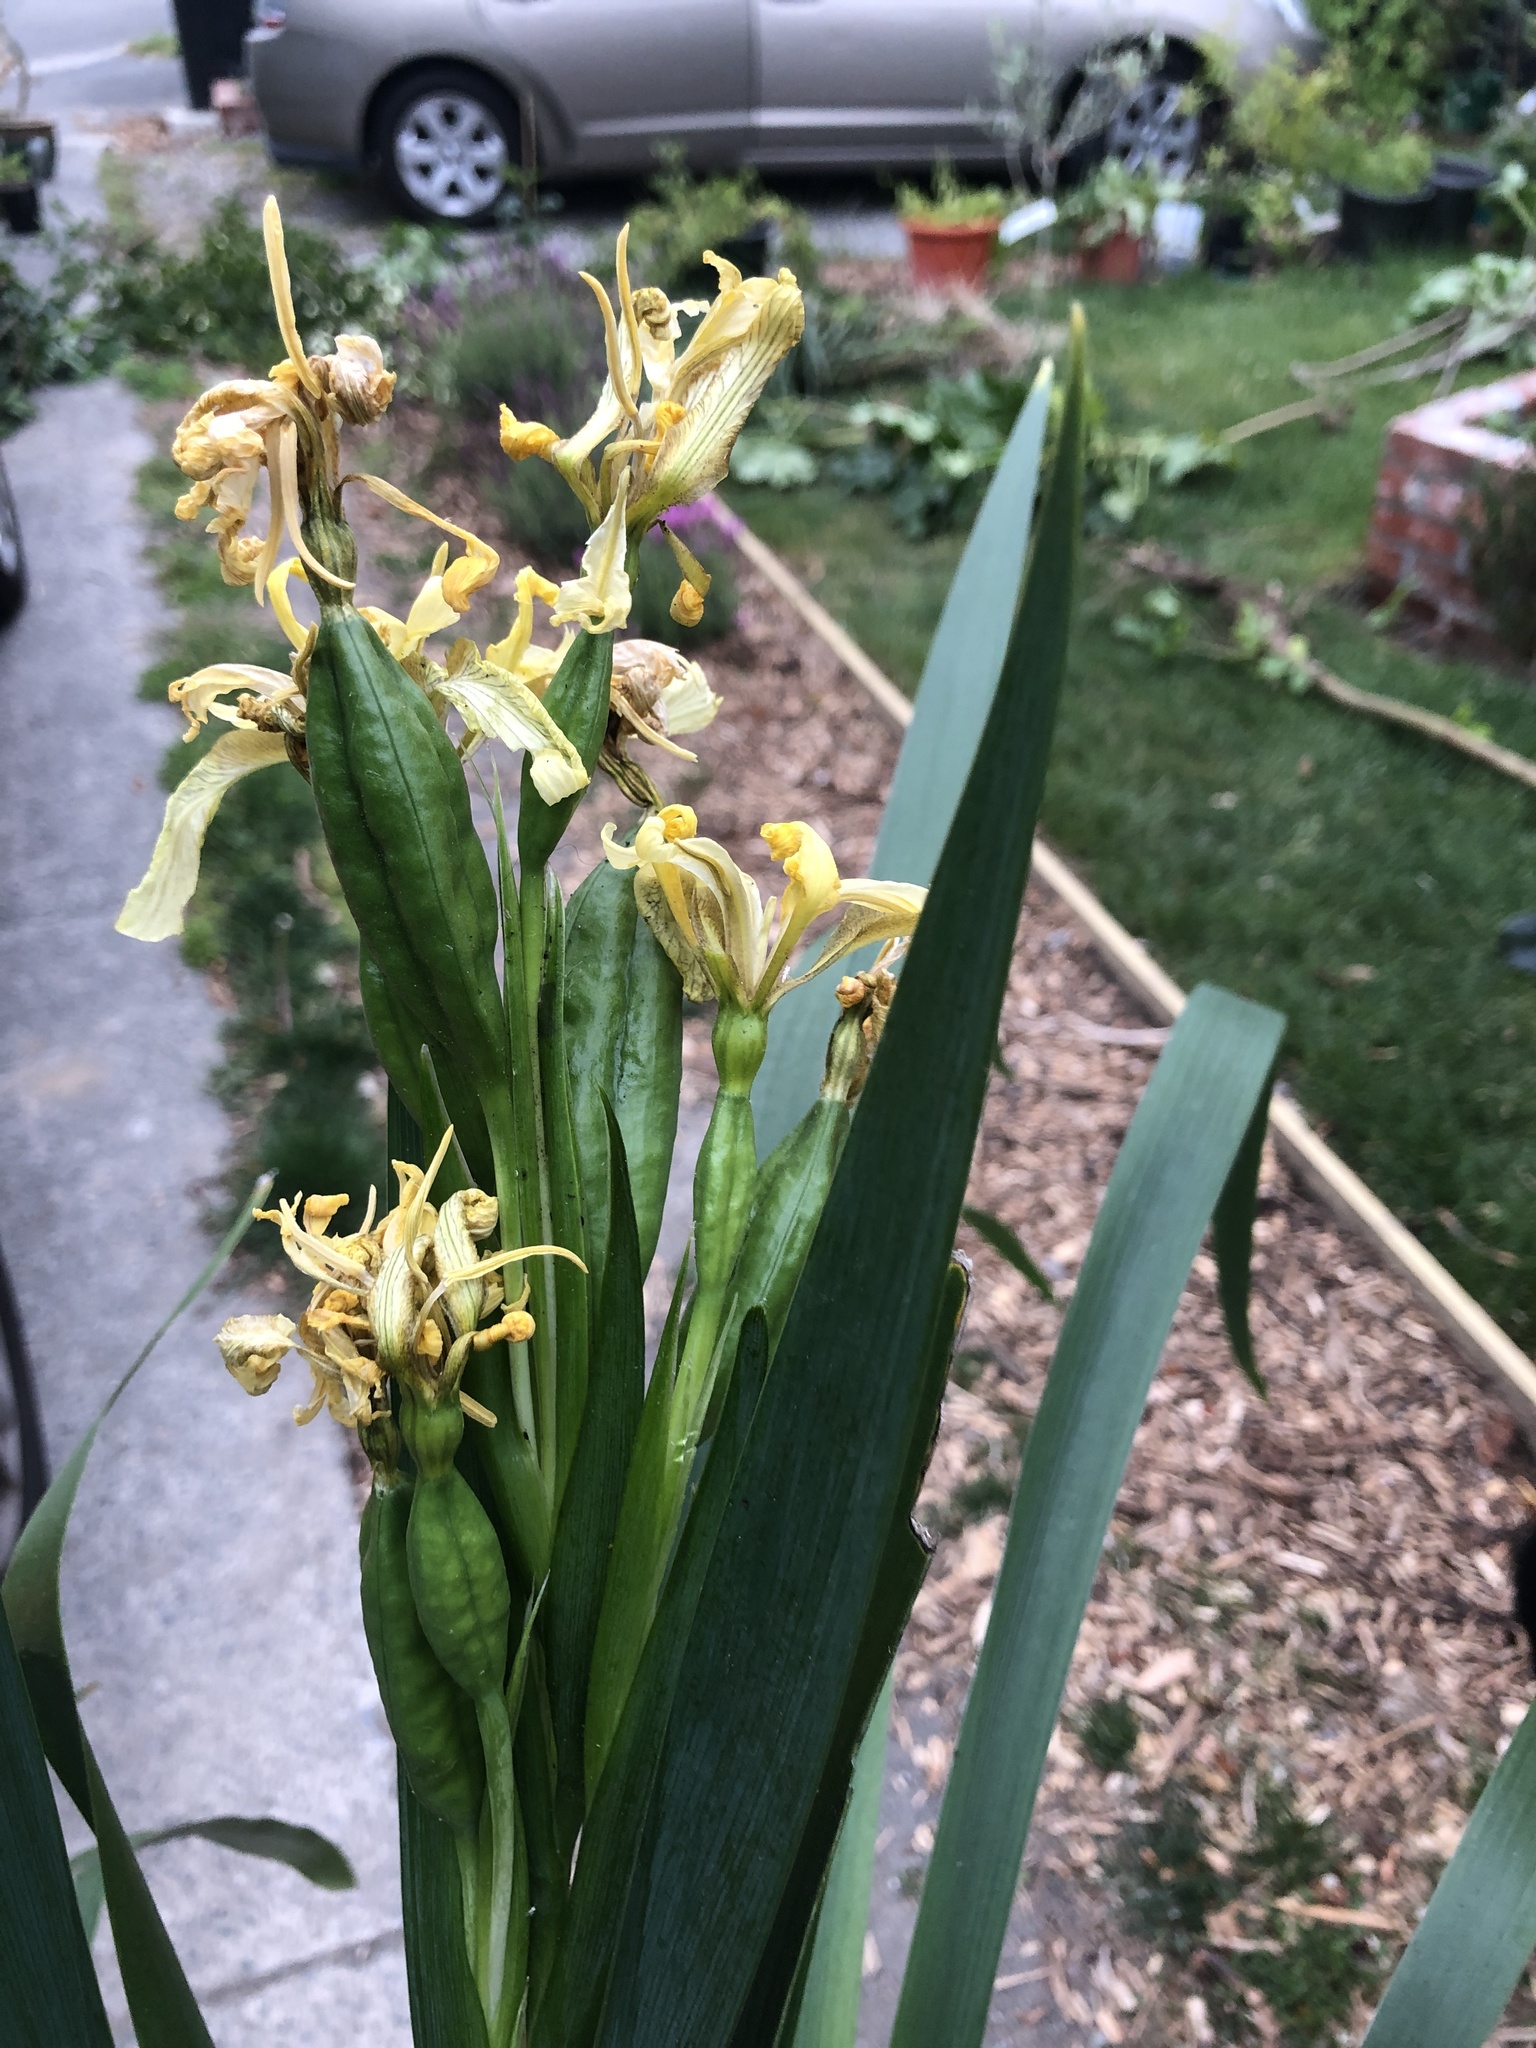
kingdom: Plantae
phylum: Tracheophyta
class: Liliopsida
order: Asparagales
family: Iridaceae
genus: Iris
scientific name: Iris foetidissima
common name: Stinking iris
